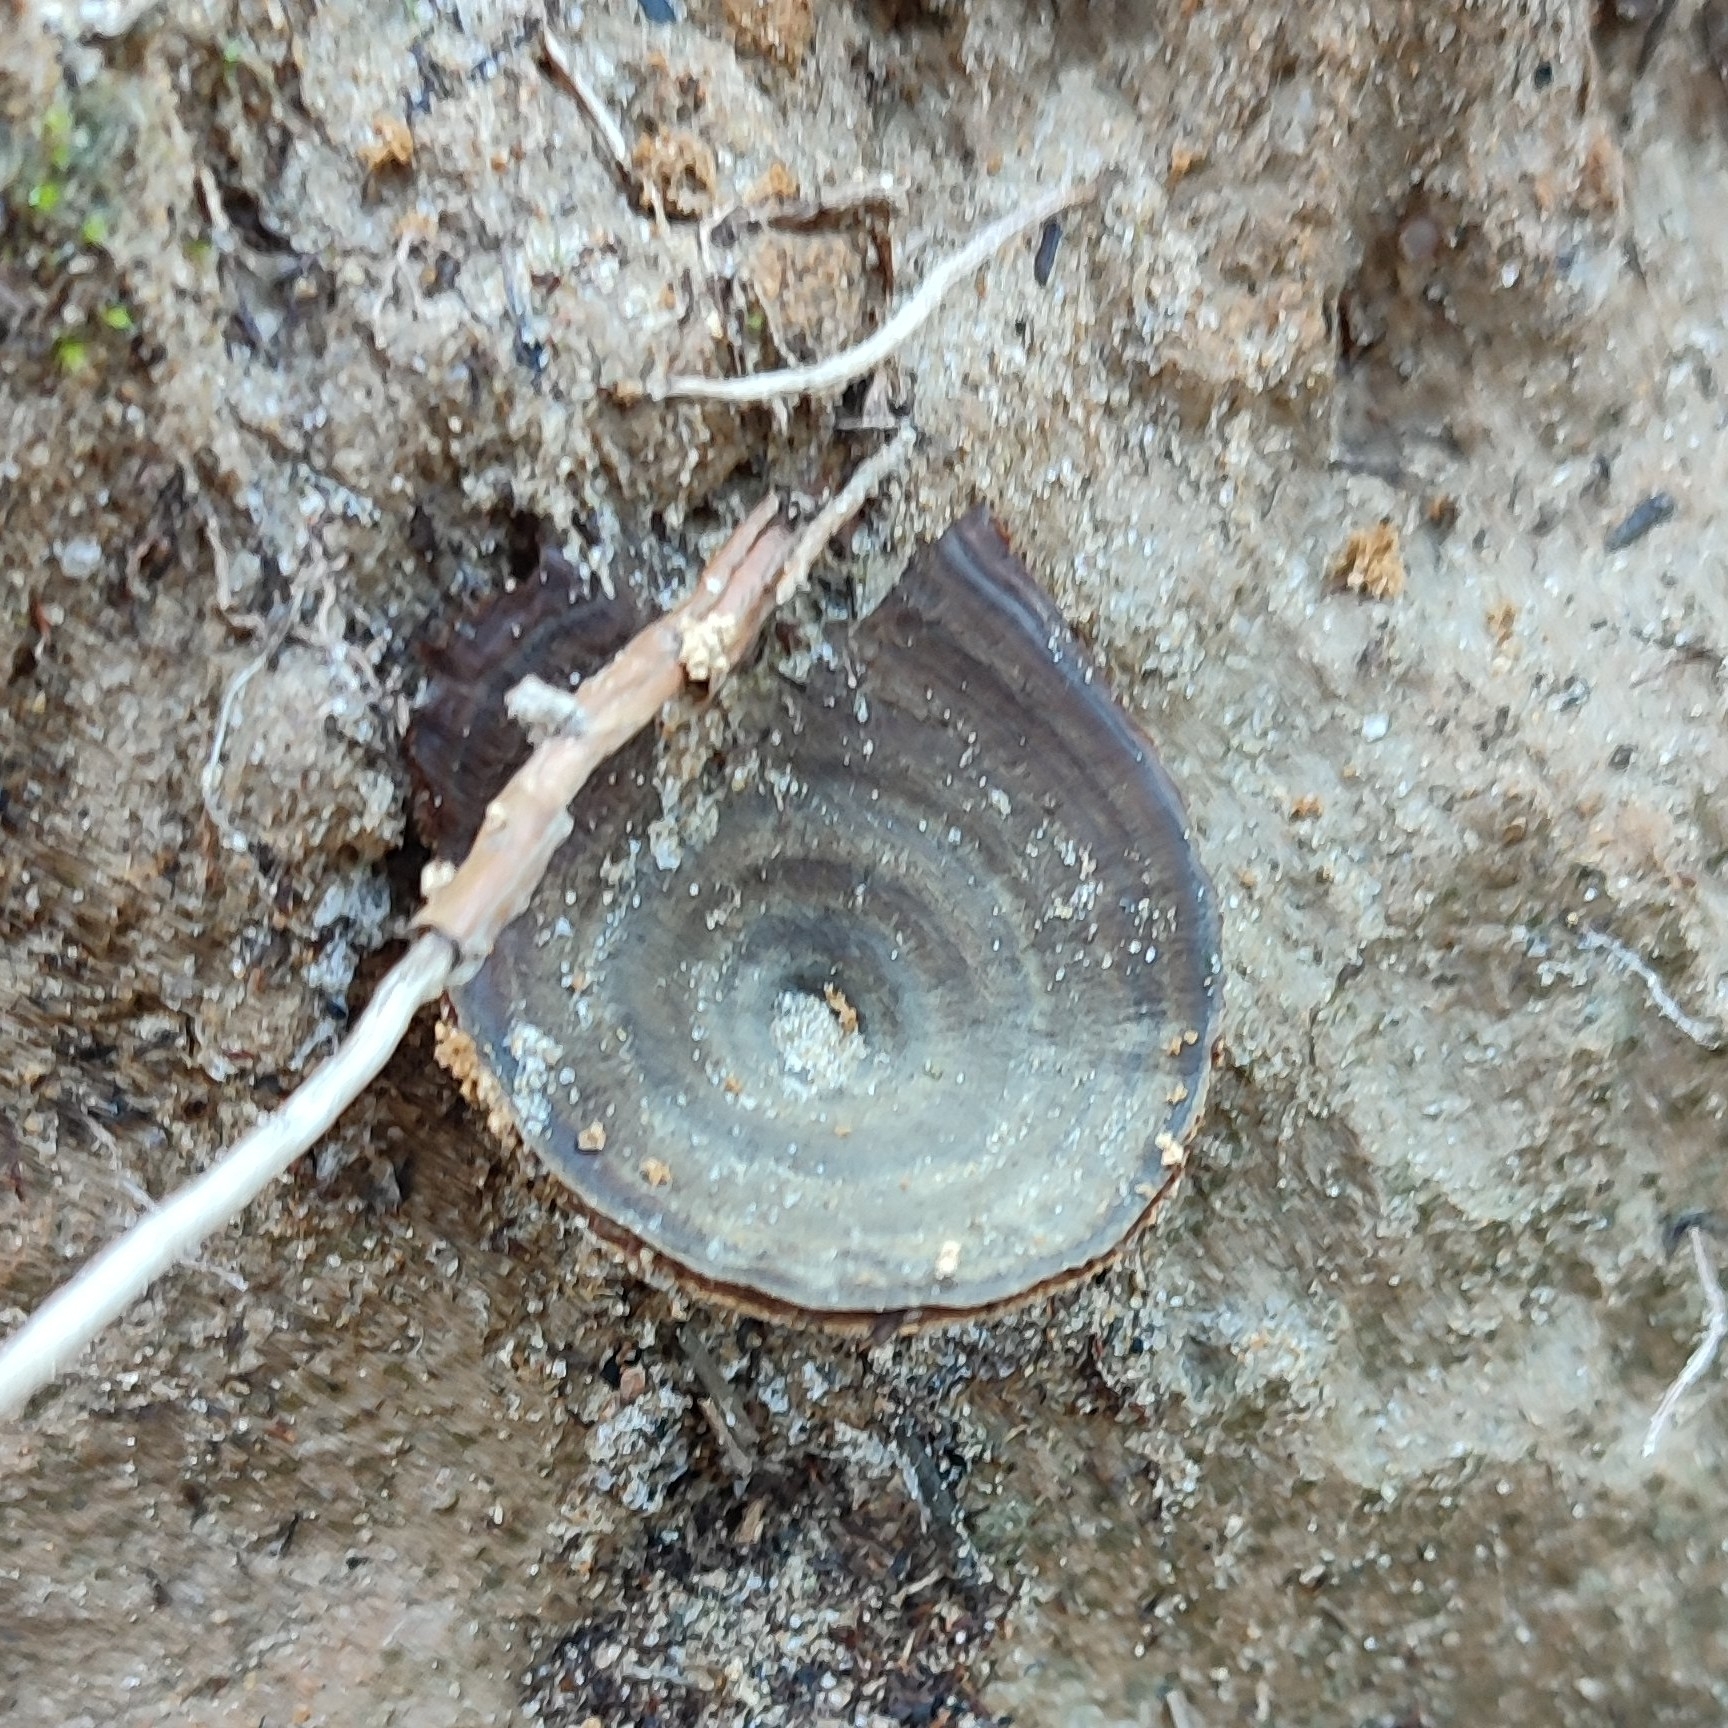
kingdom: Fungi
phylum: Basidiomycota
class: Agaricomycetes
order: Hymenochaetales
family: Hymenochaetaceae
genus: Coltricia
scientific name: Coltricia perennis
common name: Tiger's eye
